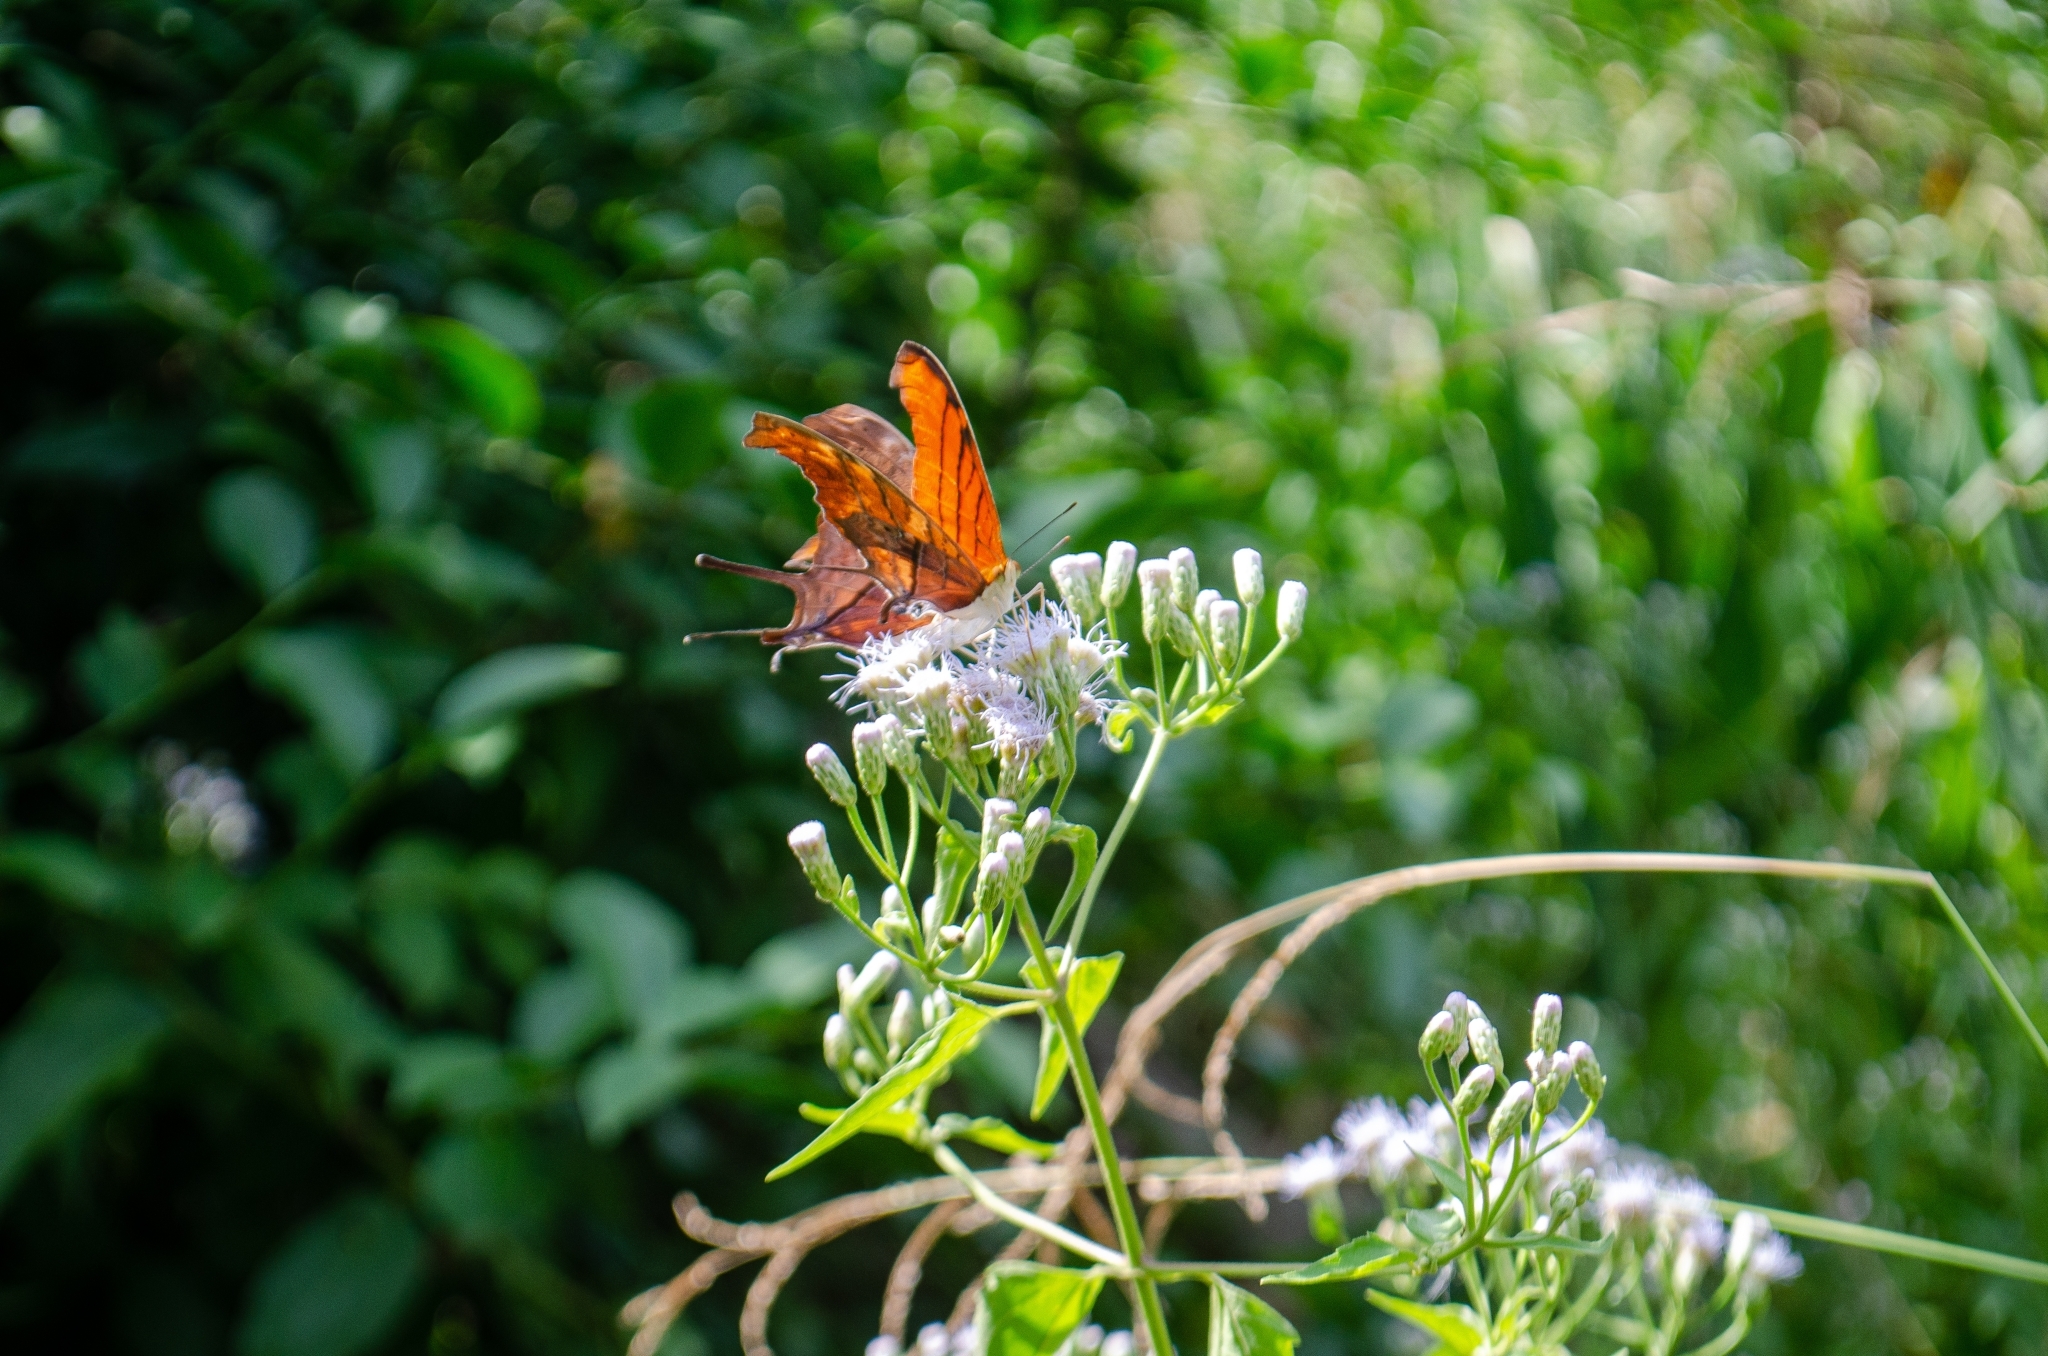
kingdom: Animalia
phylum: Arthropoda
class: Insecta
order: Lepidoptera
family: Nymphalidae
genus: Marpesia
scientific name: Marpesia petreus
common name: Red dagger wing
